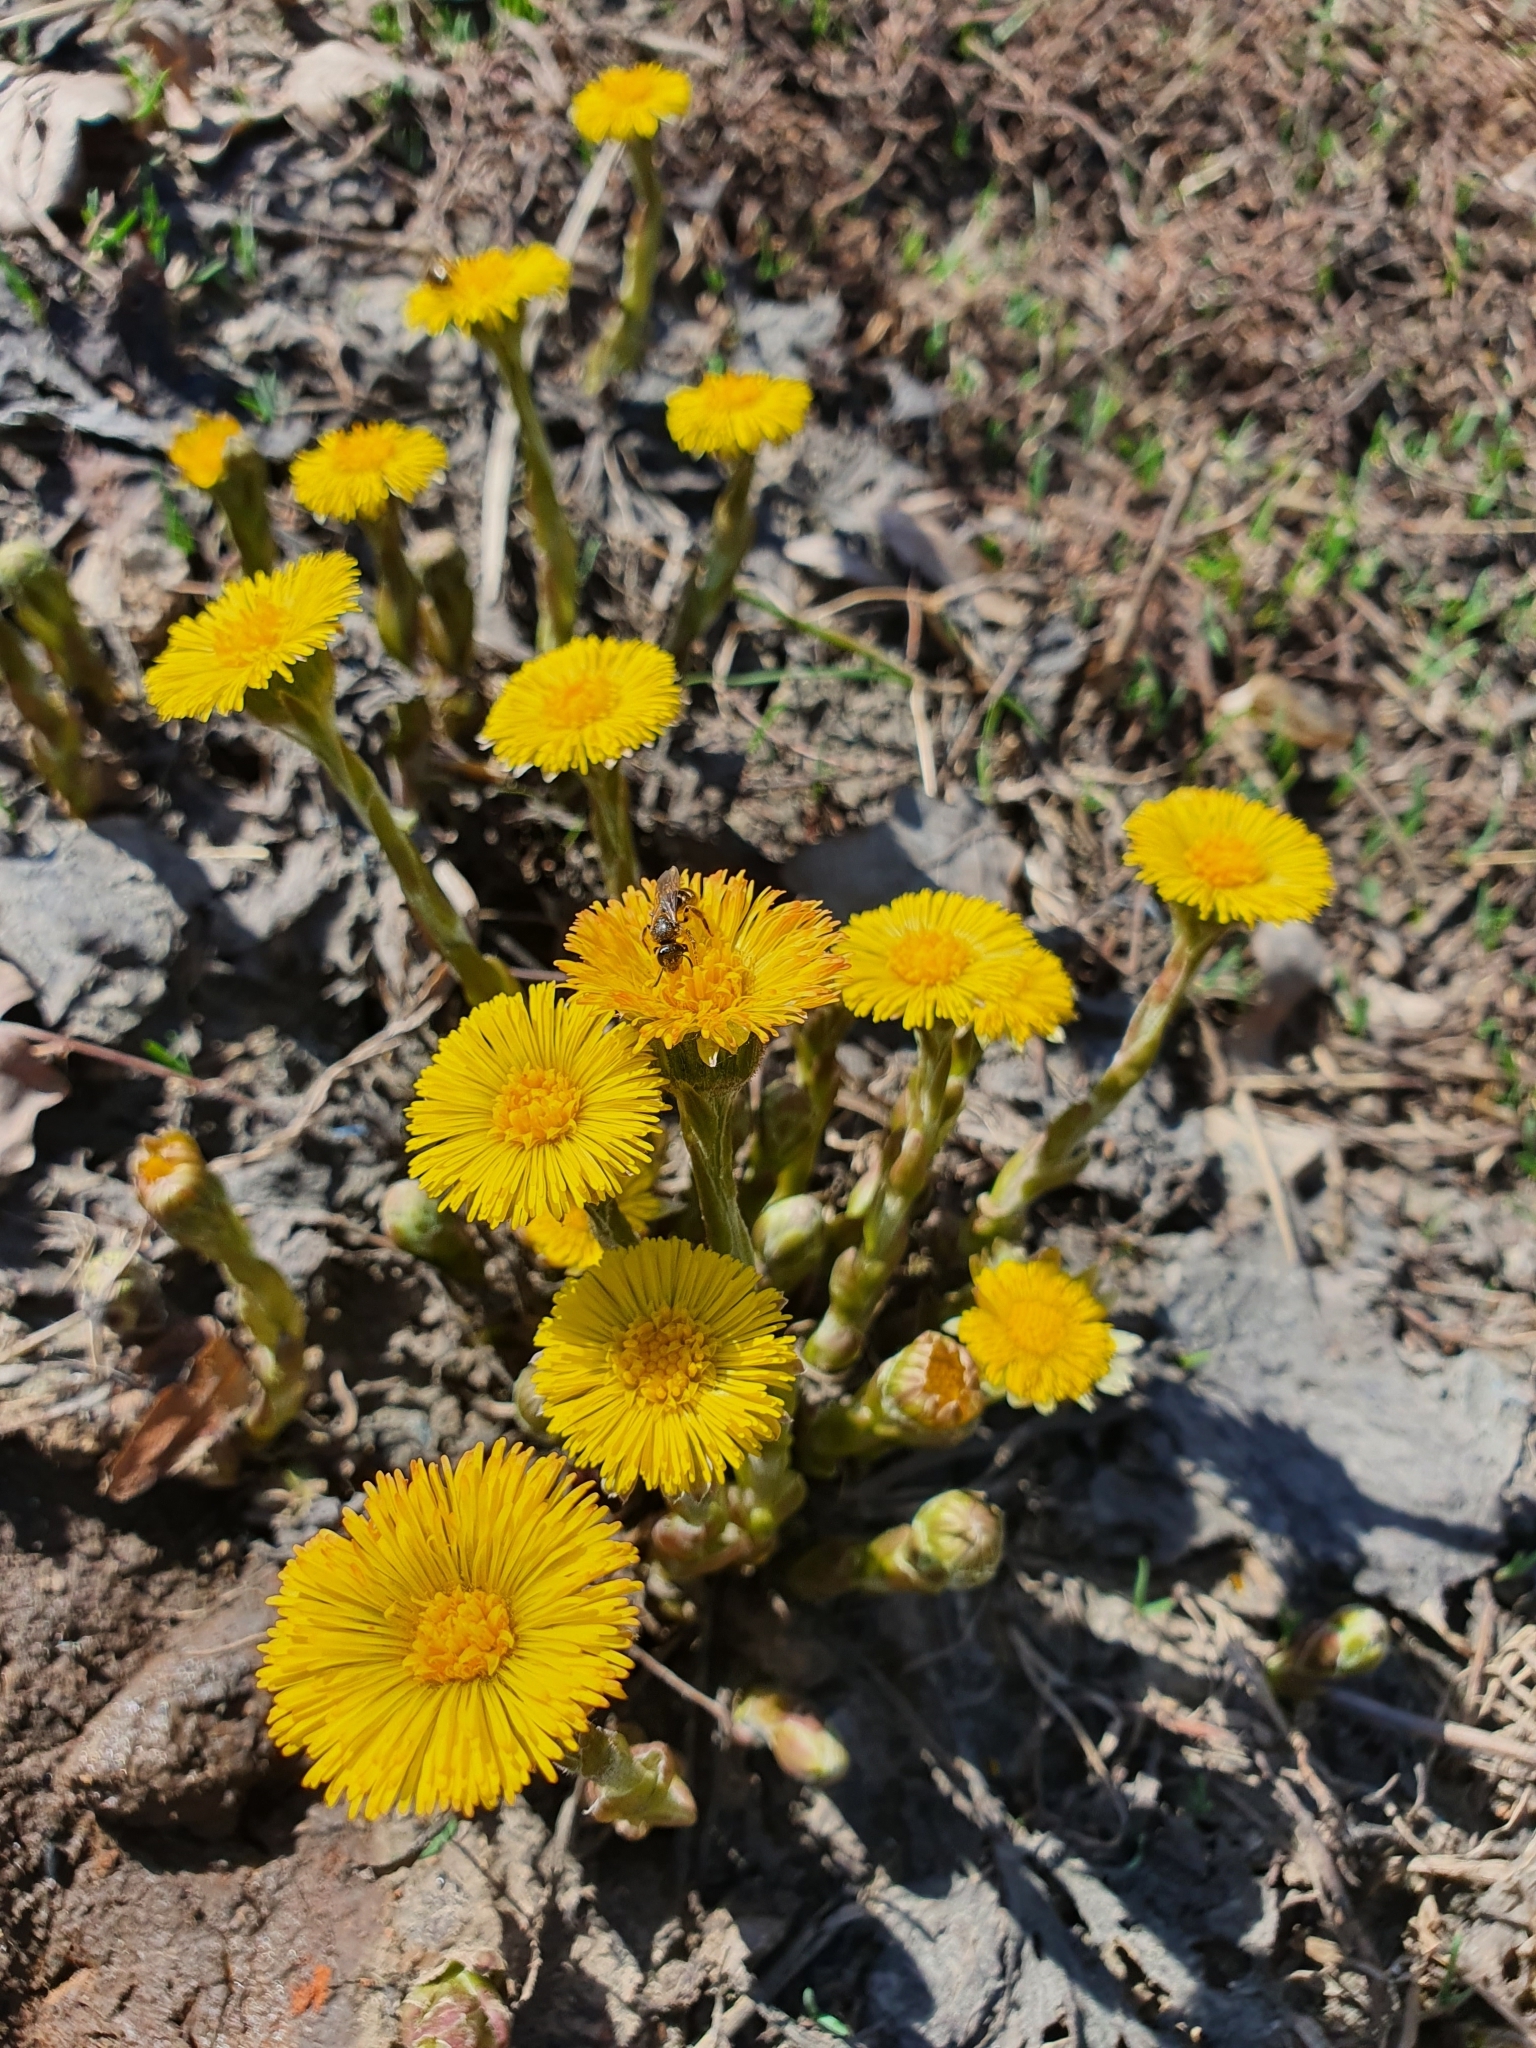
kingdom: Plantae
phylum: Tracheophyta
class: Magnoliopsida
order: Asterales
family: Asteraceae
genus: Tussilago
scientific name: Tussilago farfara
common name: Coltsfoot
